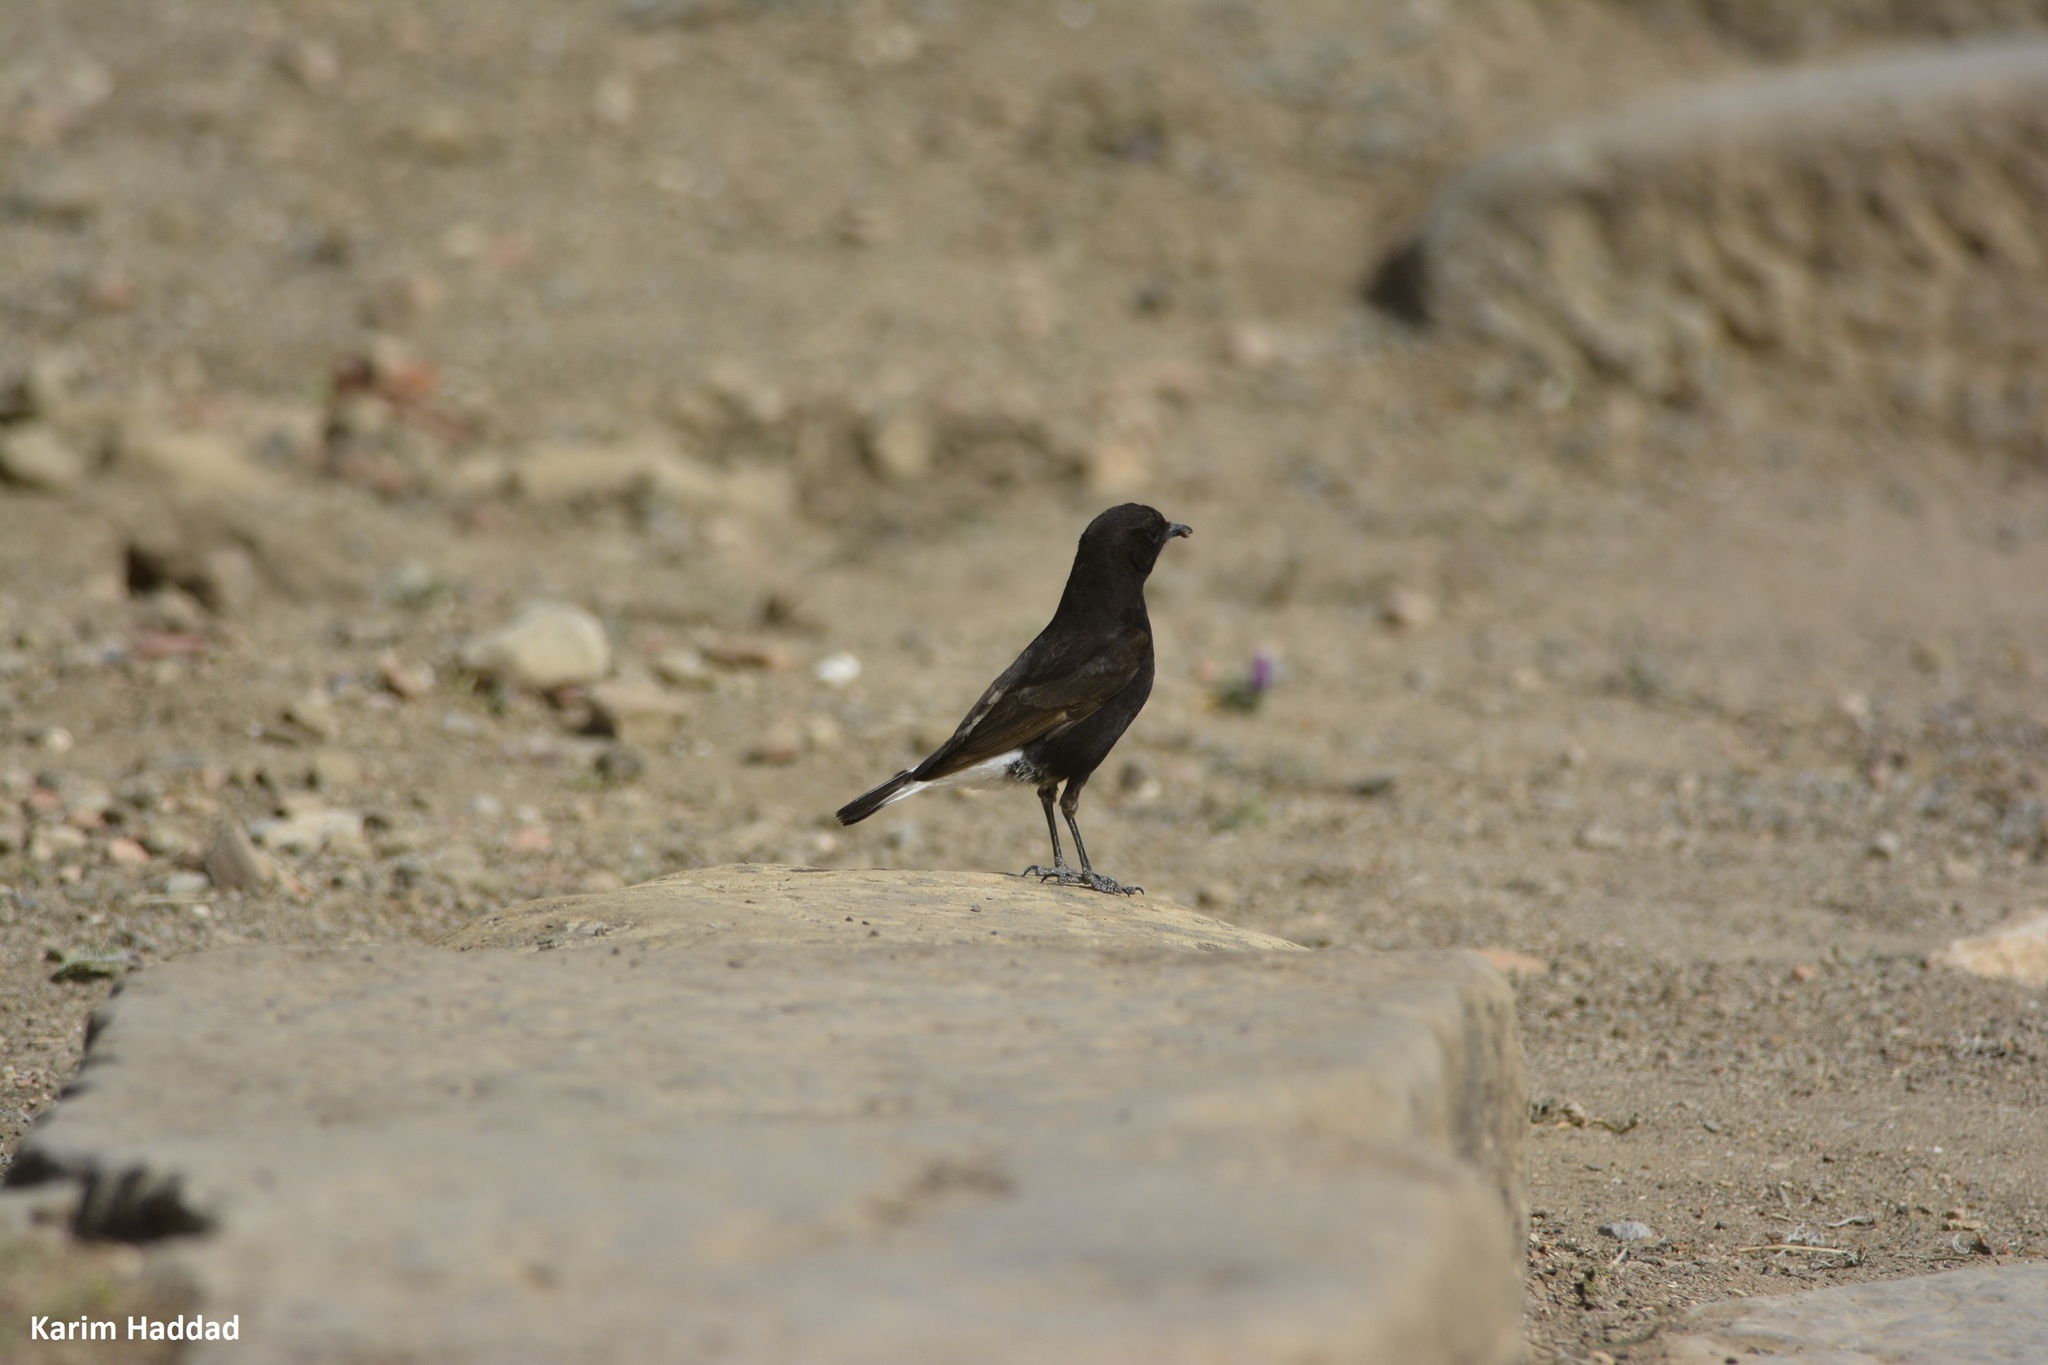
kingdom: Animalia
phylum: Chordata
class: Aves
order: Passeriformes
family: Muscicapidae
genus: Oenanthe
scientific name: Oenanthe leucura
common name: Black wheatear
